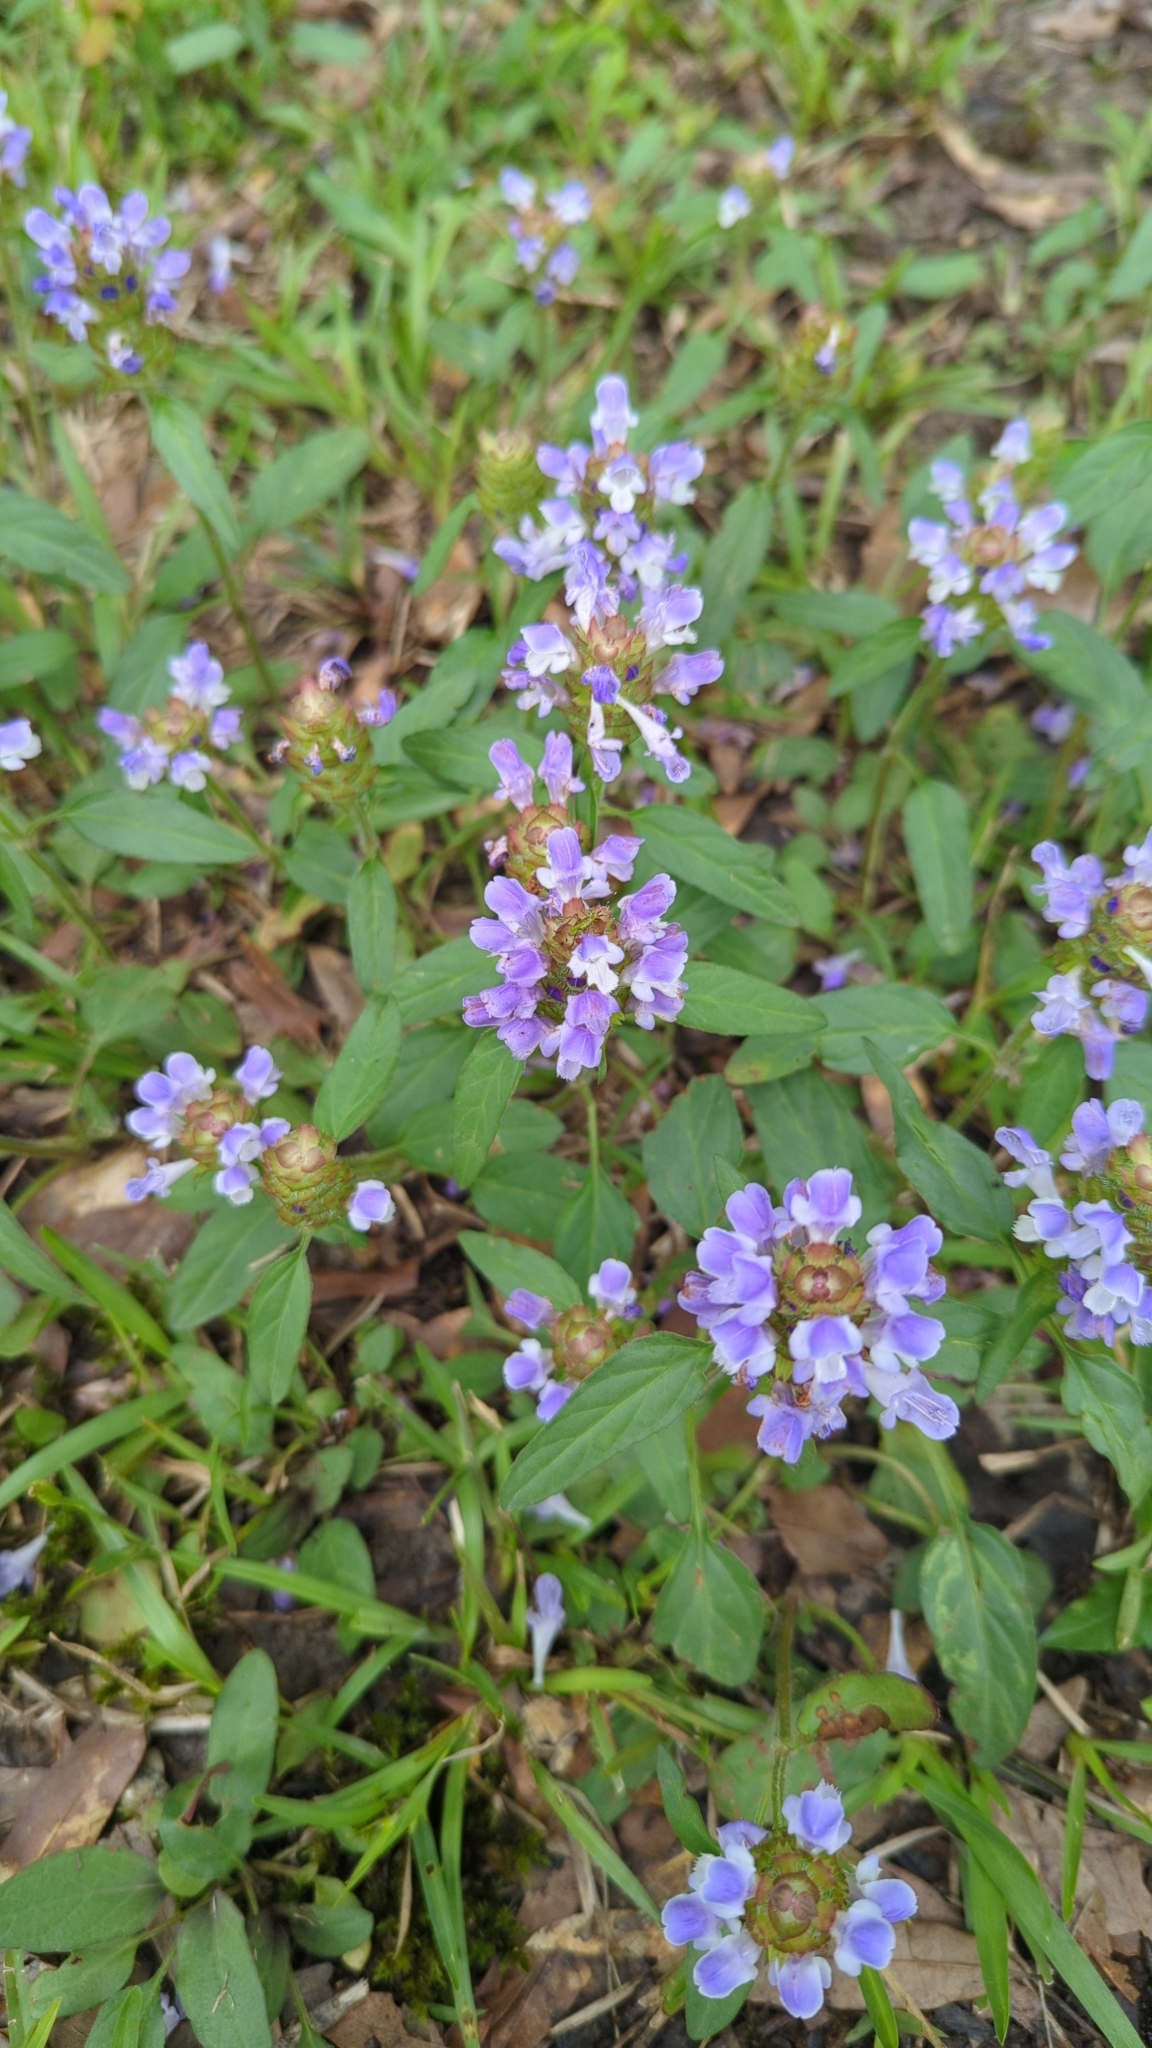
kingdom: Plantae
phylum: Tracheophyta
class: Magnoliopsida
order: Lamiales
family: Lamiaceae
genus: Prunella
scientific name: Prunella vulgaris
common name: Heal-all
